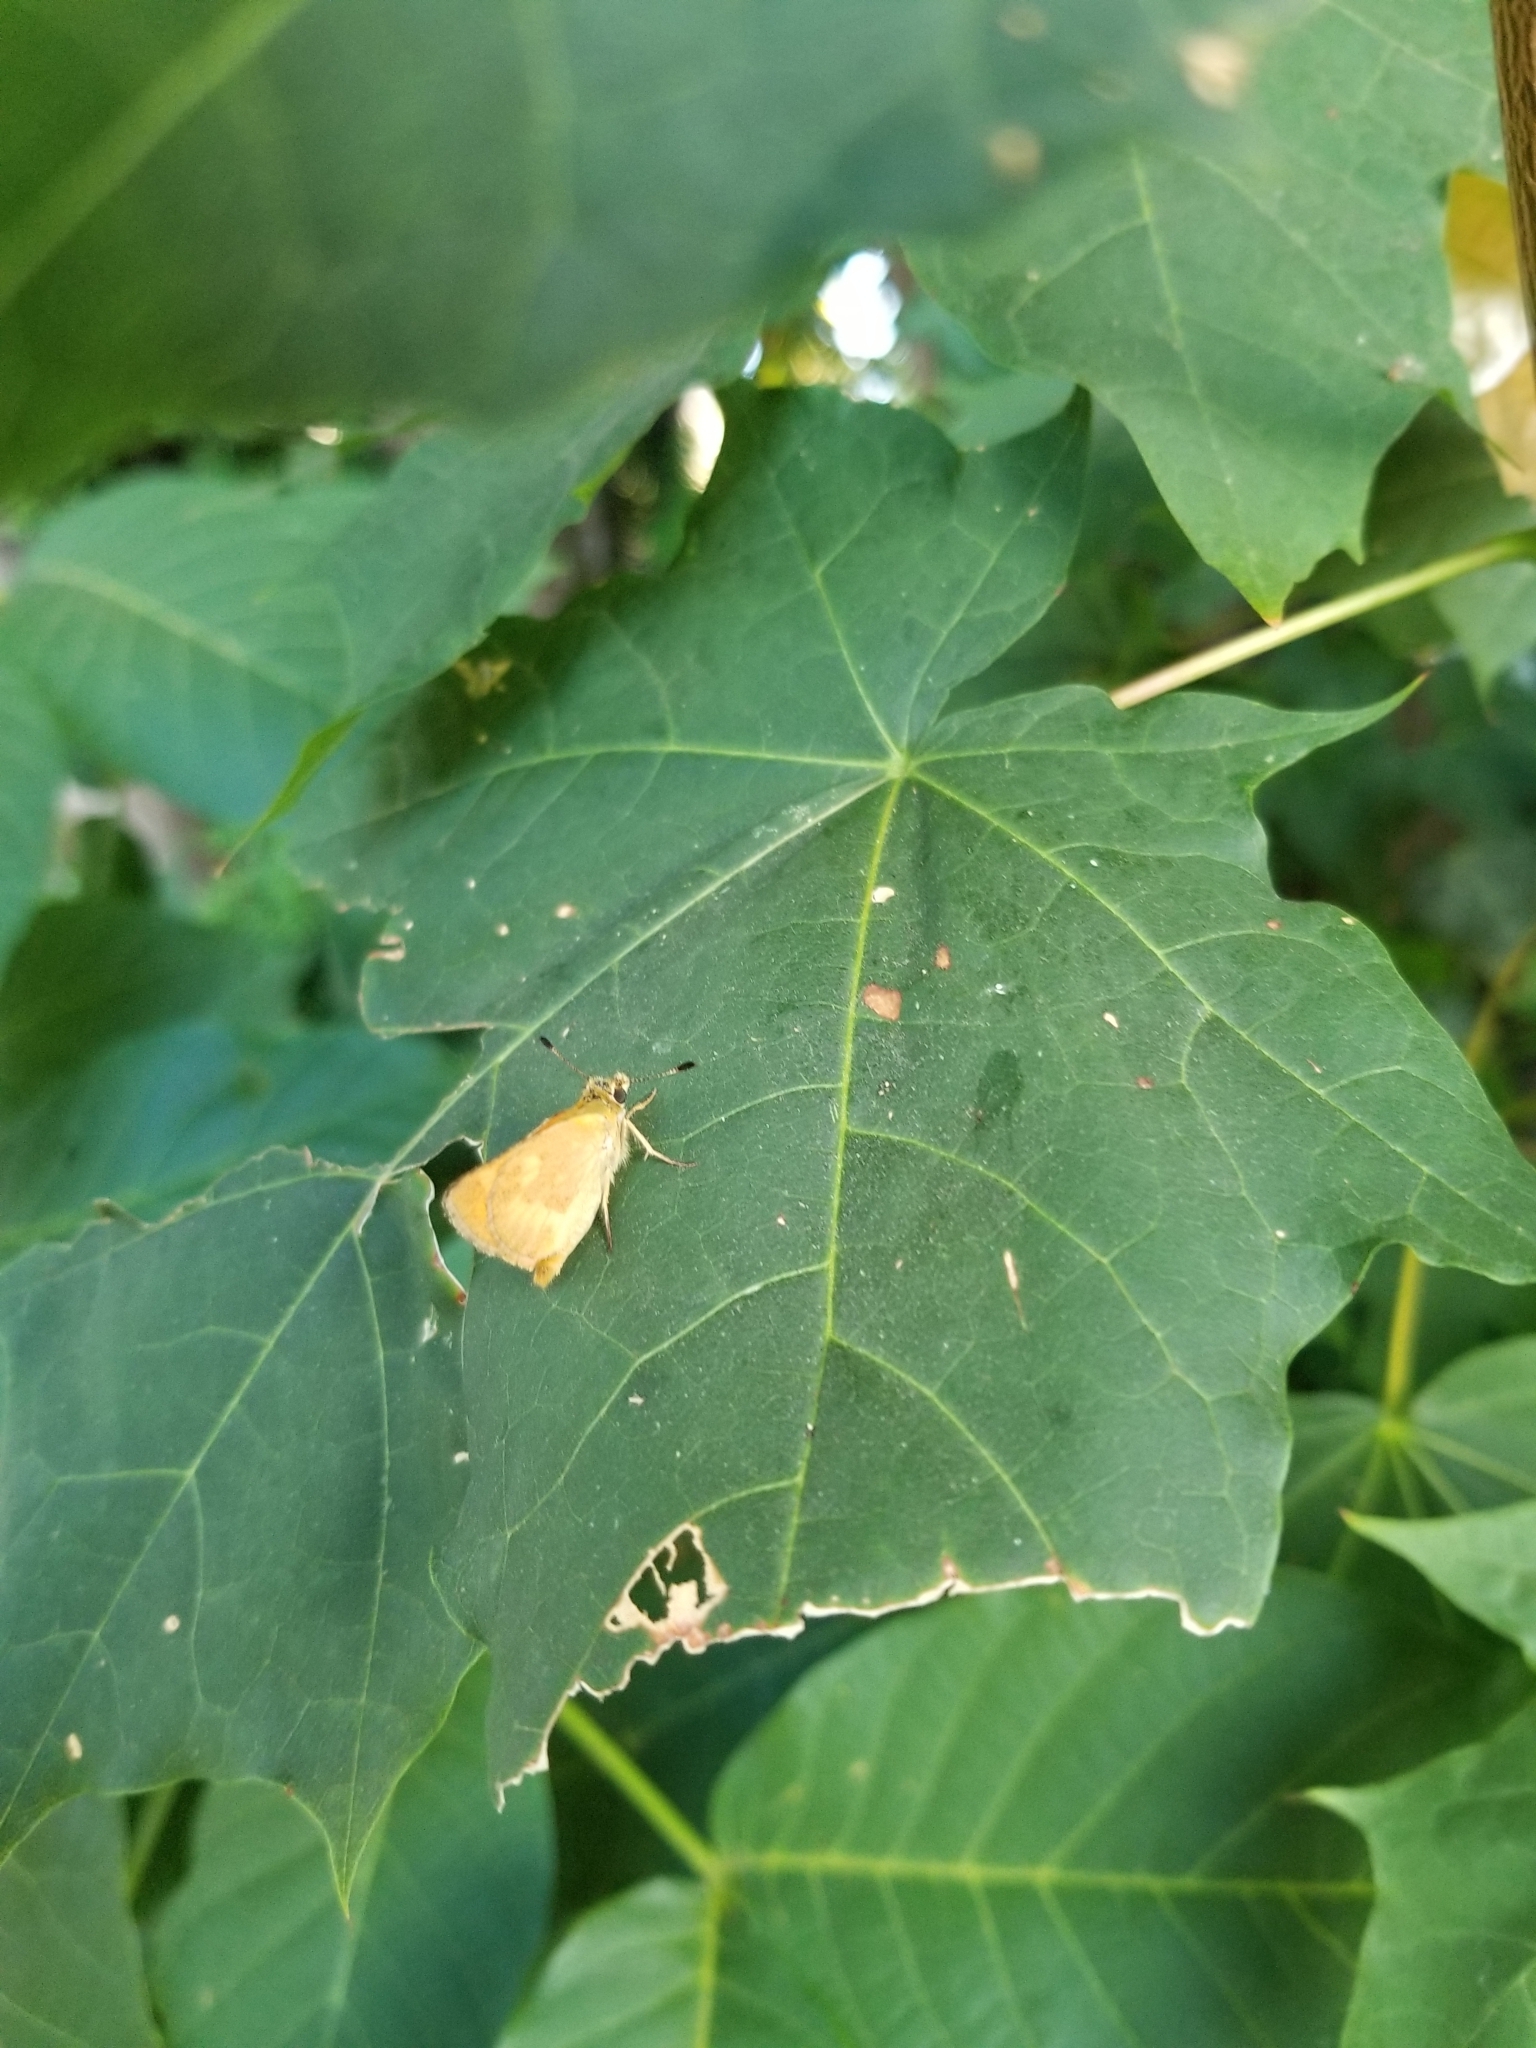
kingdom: Animalia
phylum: Arthropoda
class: Insecta
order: Lepidoptera
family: Hesperiidae
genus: Ochlodes
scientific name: Ochlodes sylvanoides
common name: Woodland skipper
